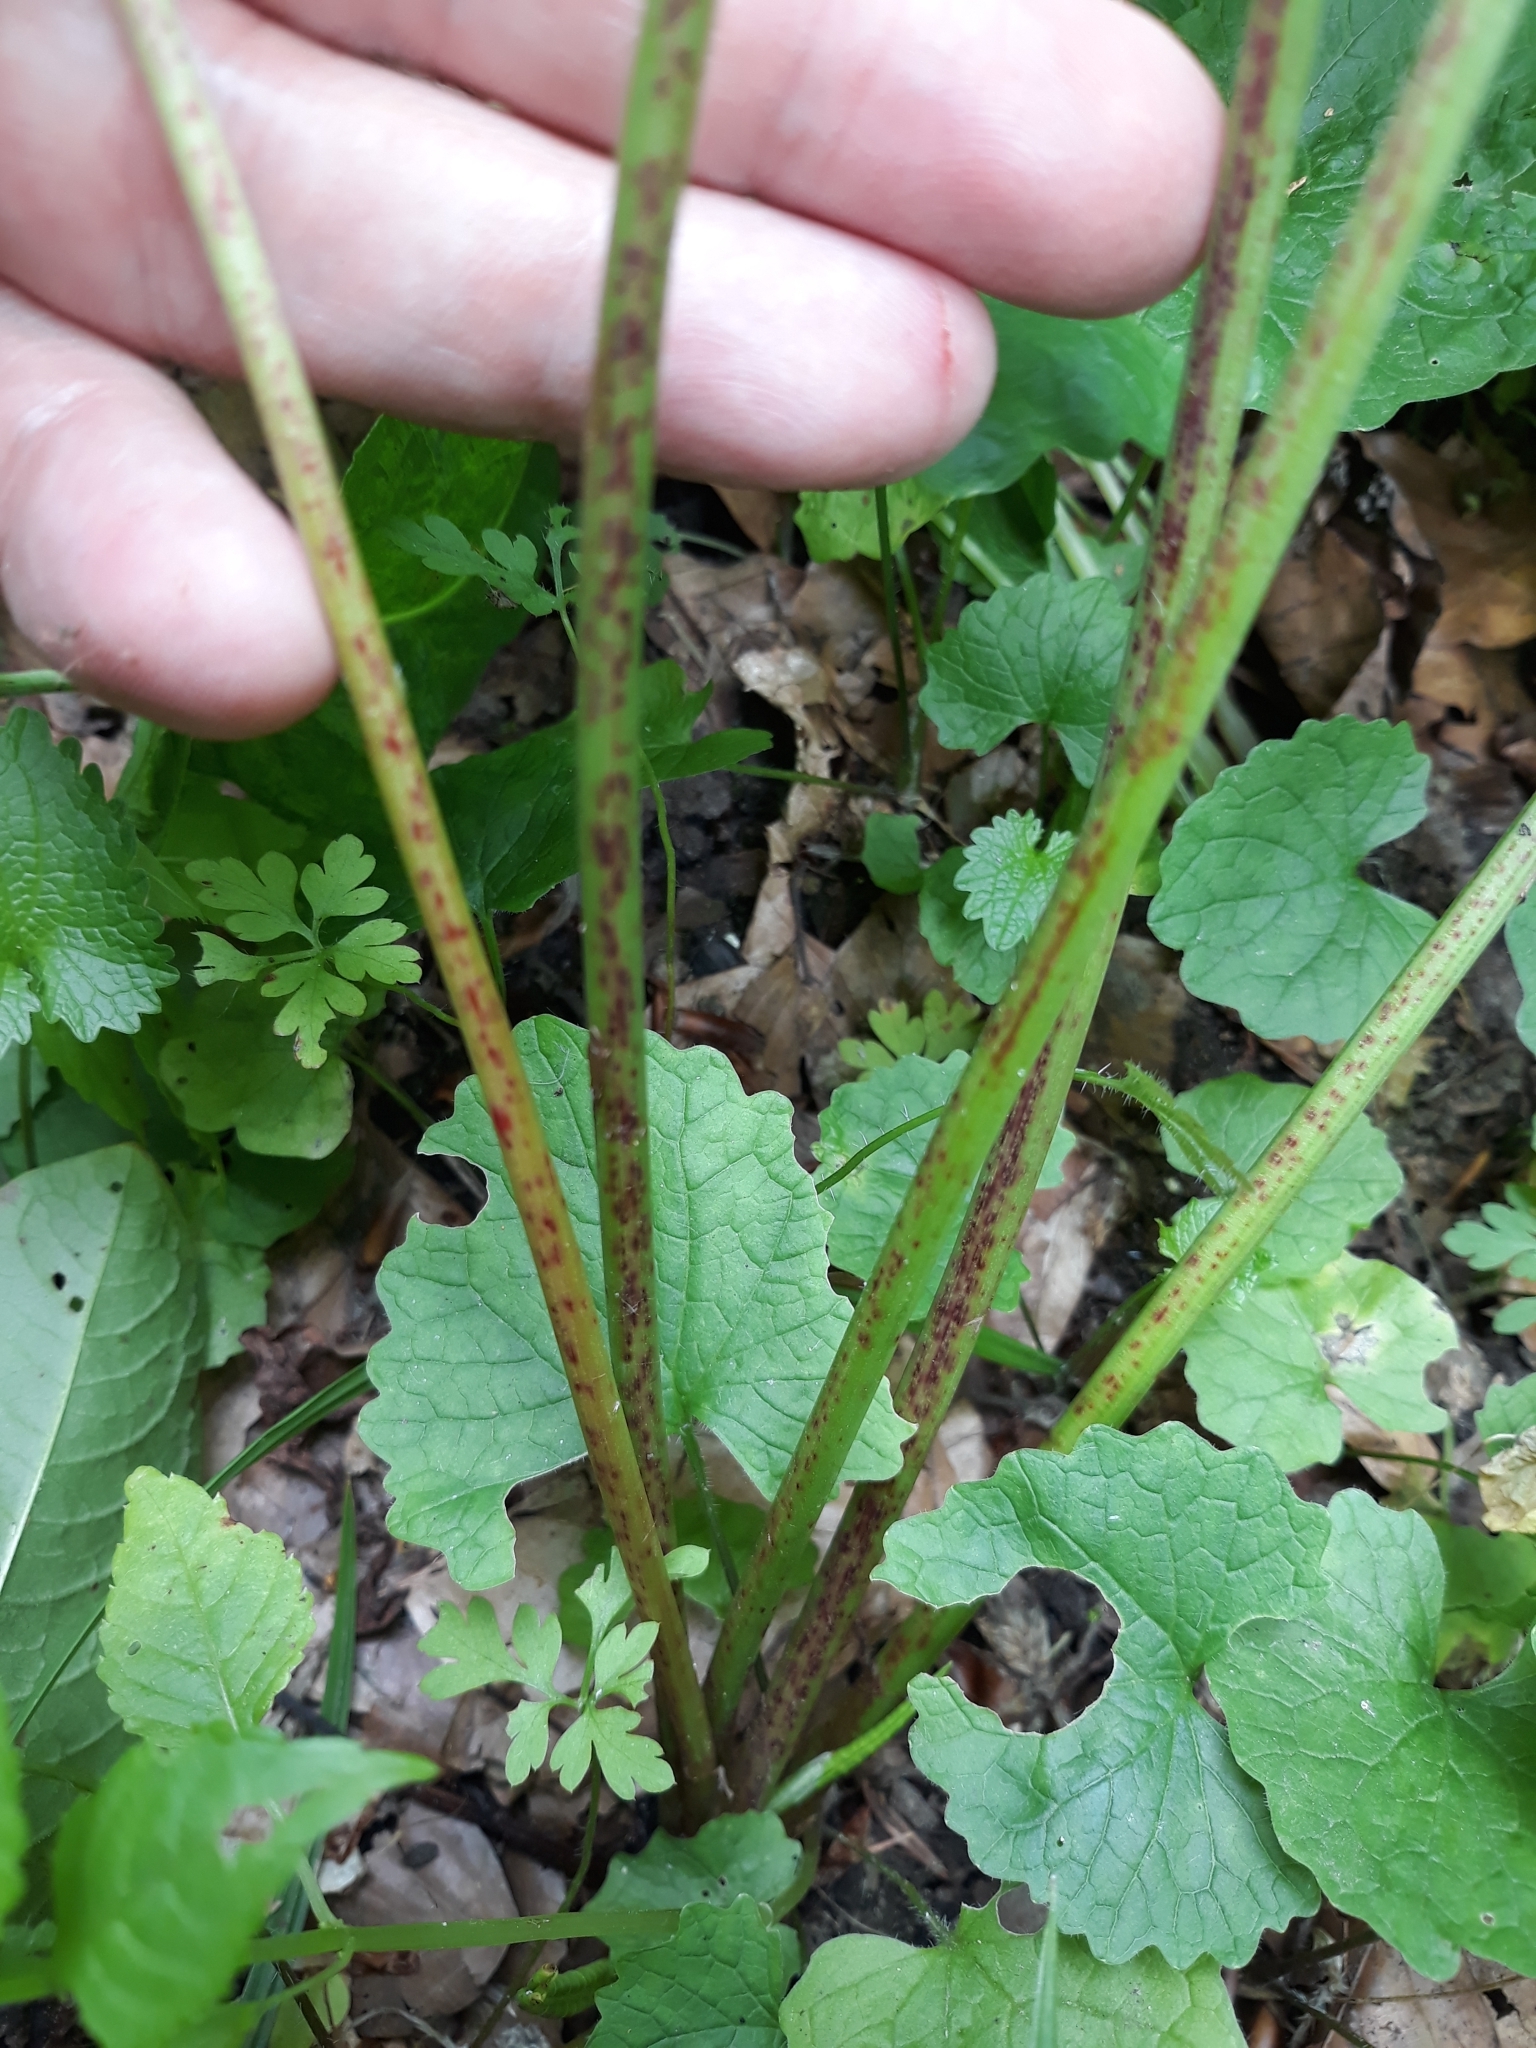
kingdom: Plantae
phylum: Tracheophyta
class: Magnoliopsida
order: Caryophyllales
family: Polygonaceae
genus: Rumex
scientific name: Rumex obtusifolius
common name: Bitter dock
